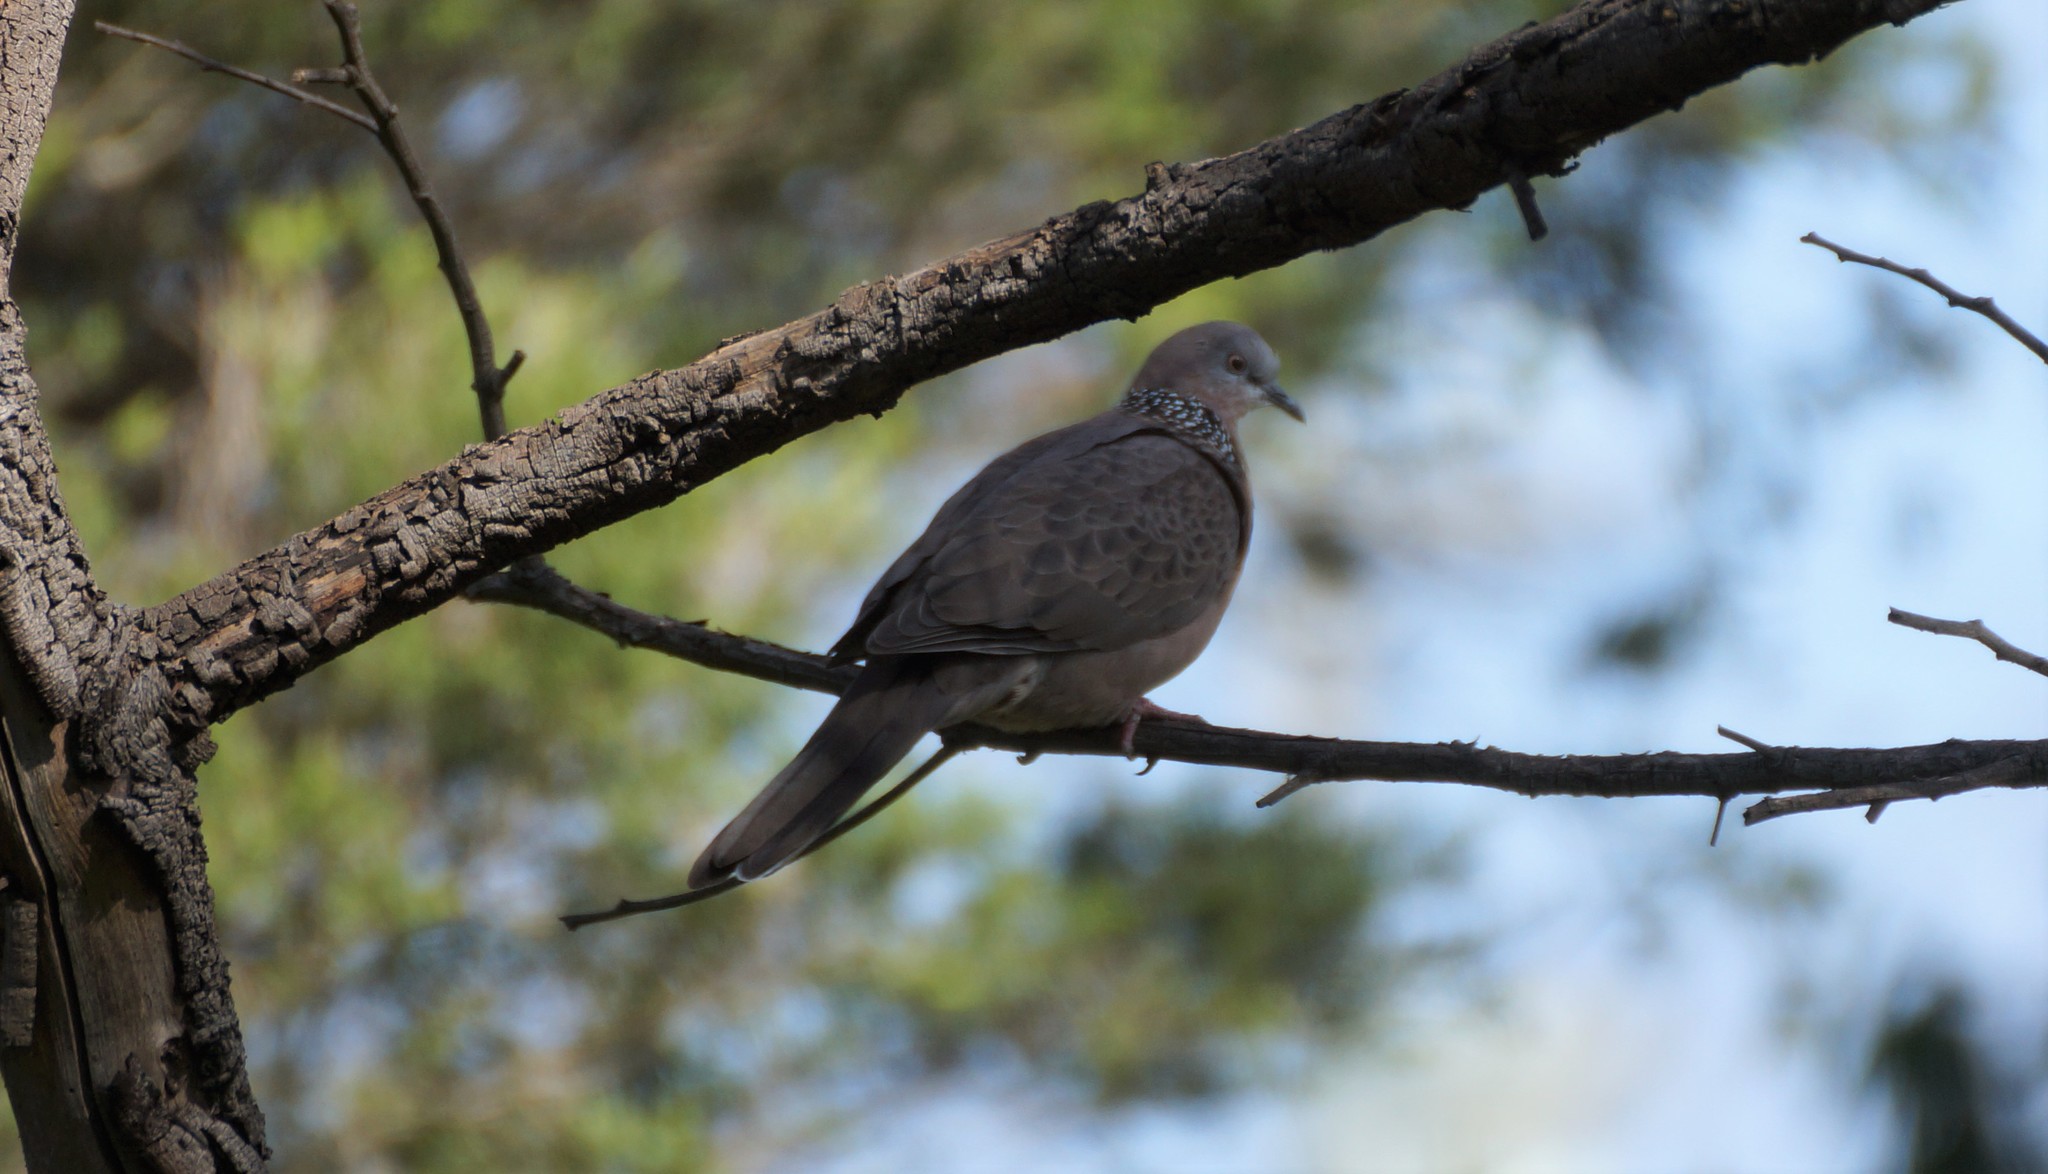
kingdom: Animalia
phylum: Chordata
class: Aves
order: Columbiformes
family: Columbidae
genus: Spilopelia
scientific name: Spilopelia chinensis
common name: Spotted dove
